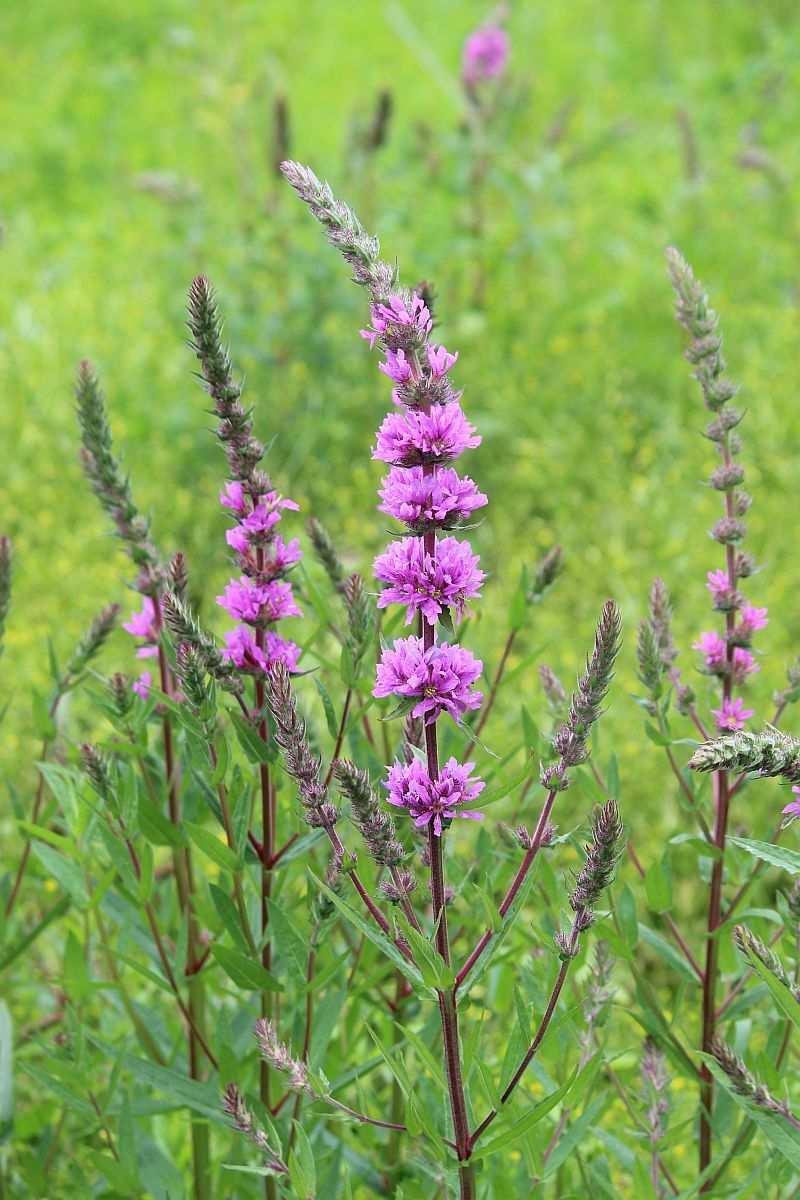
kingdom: Plantae
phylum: Tracheophyta
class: Magnoliopsida
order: Myrtales
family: Lythraceae
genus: Lythrum
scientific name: Lythrum salicaria
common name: Purple loosestrife
